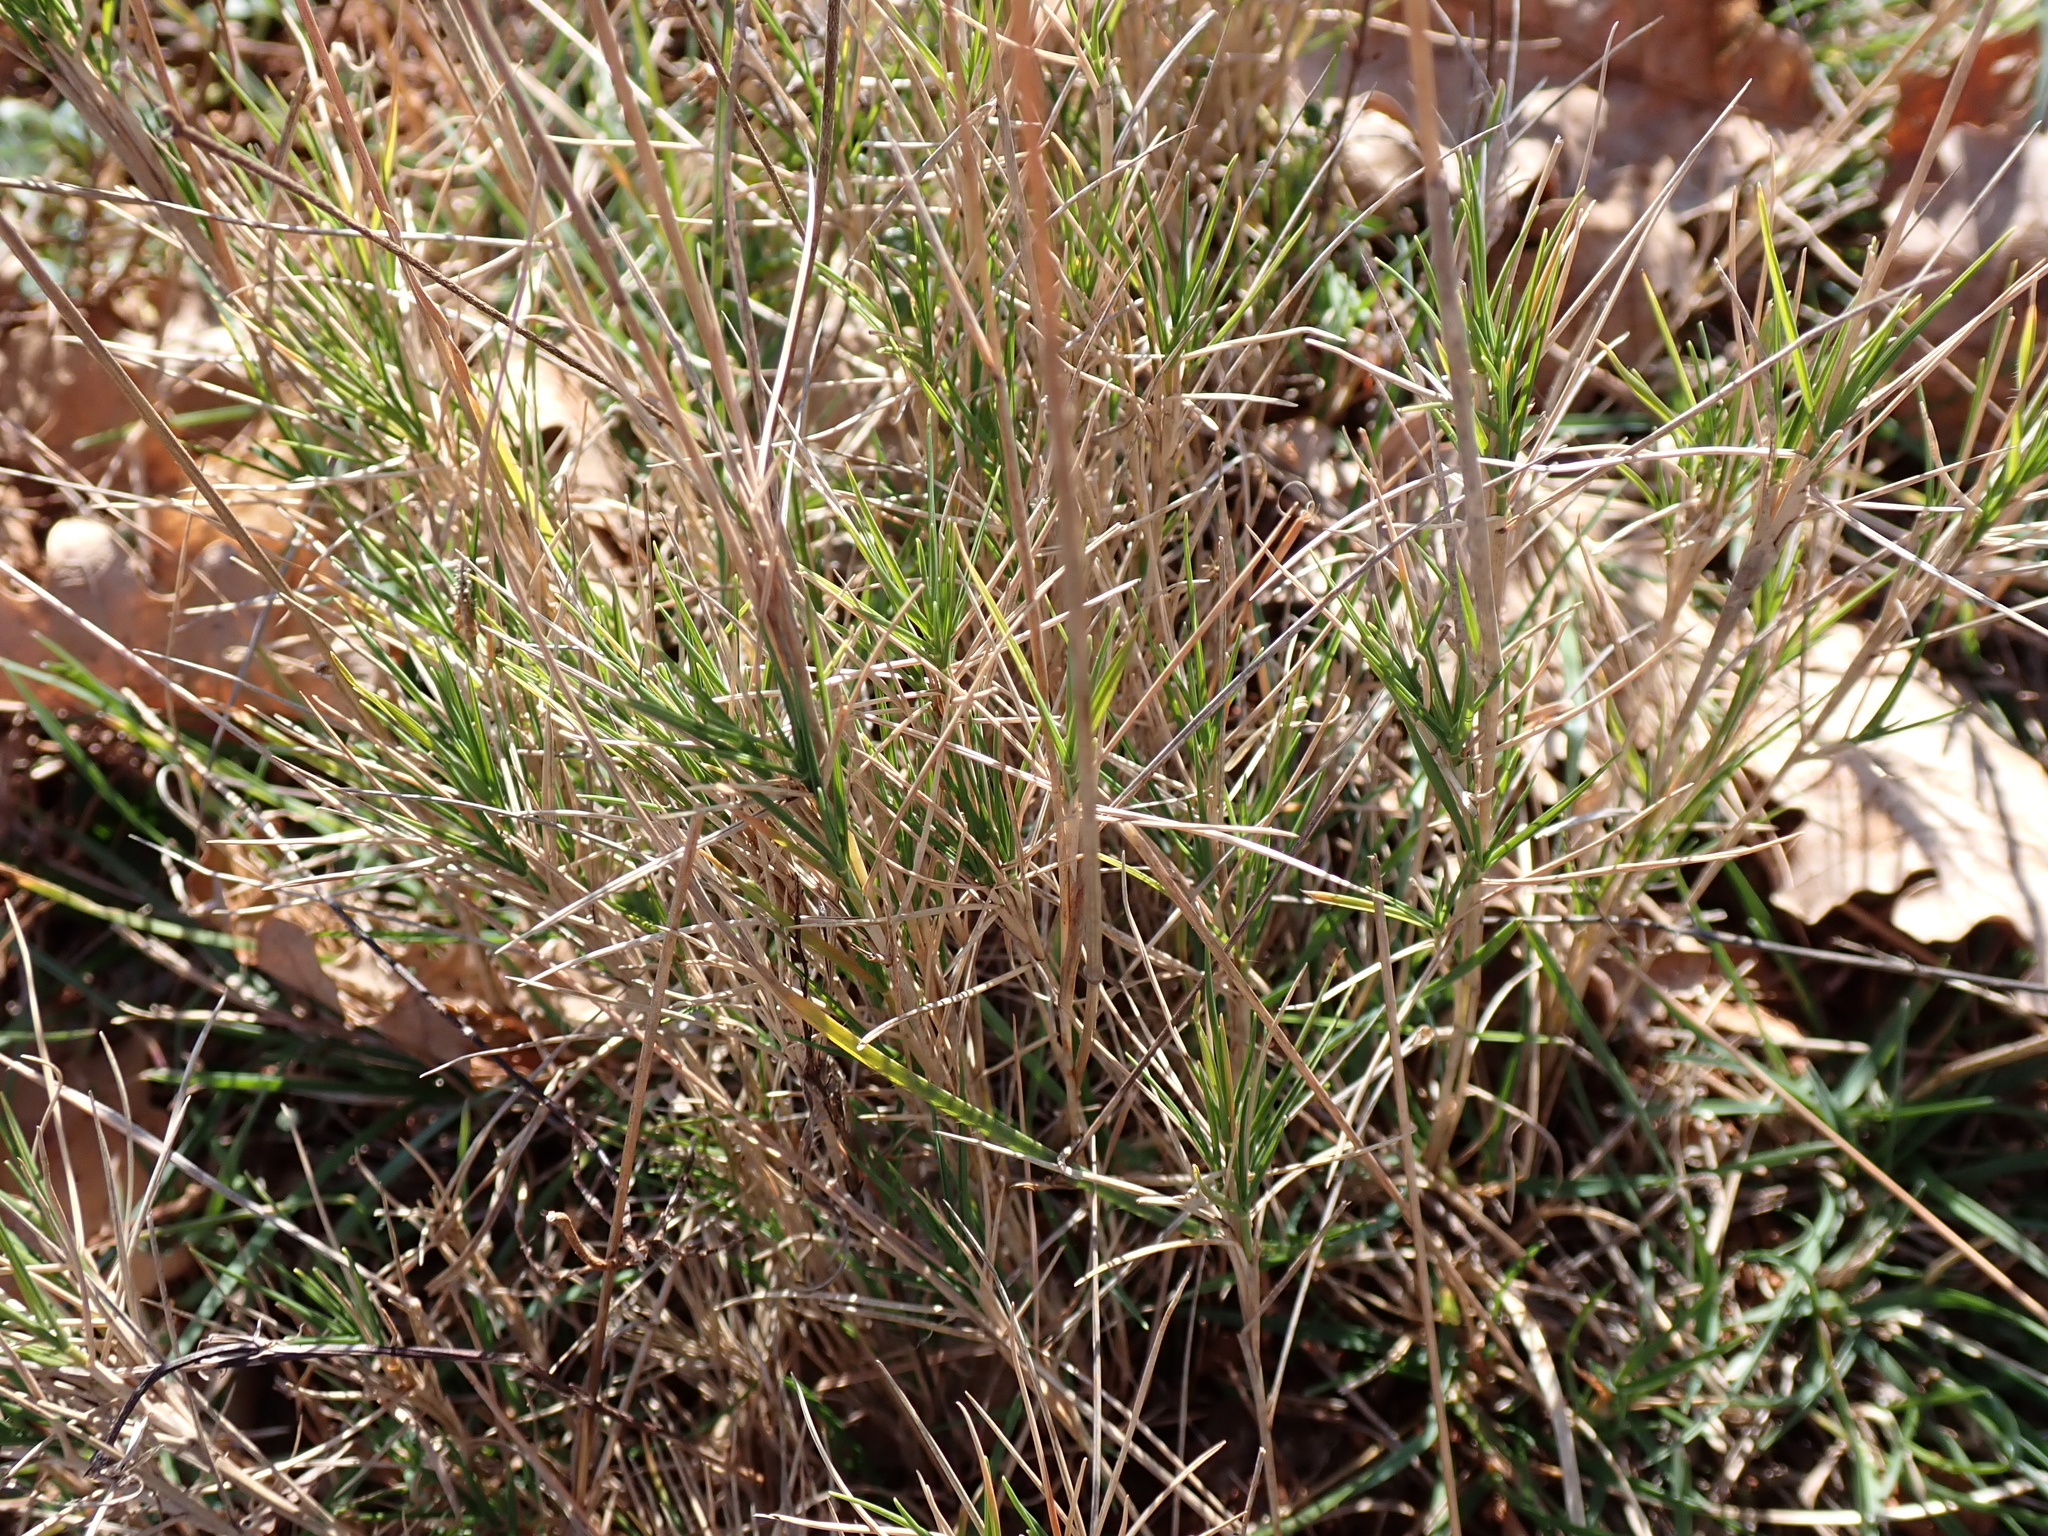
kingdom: Plantae
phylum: Tracheophyta
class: Liliopsida
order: Poales
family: Poaceae
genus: Brachypodium
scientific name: Brachypodium retusum
